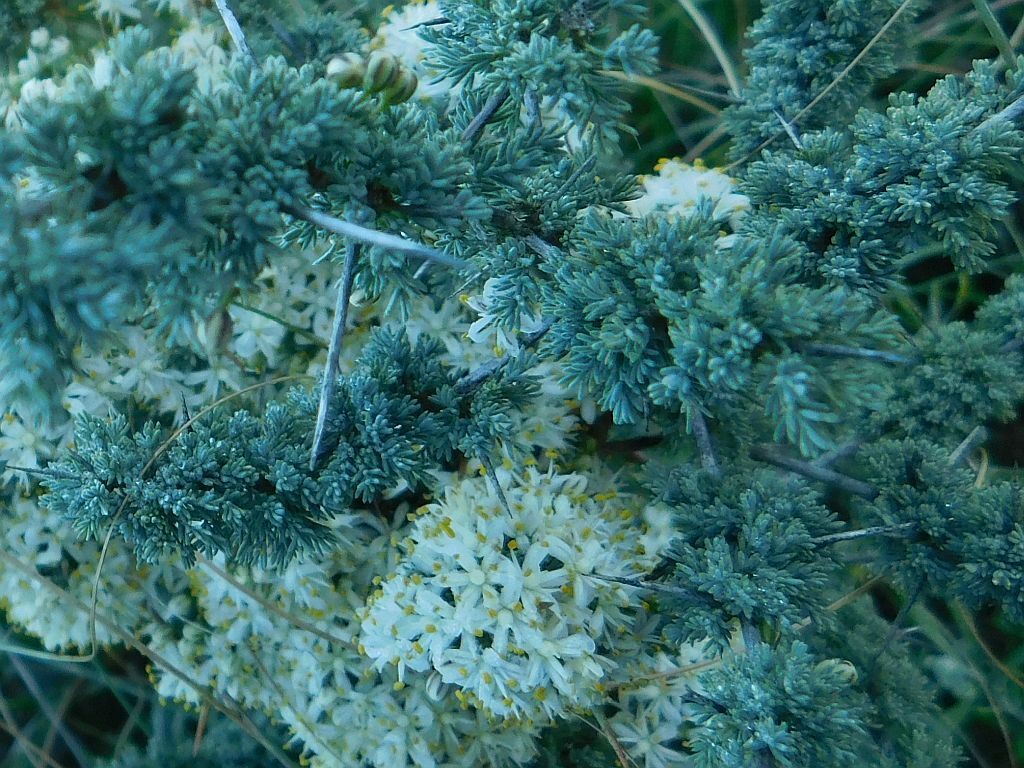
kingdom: Plantae
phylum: Tracheophyta
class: Liliopsida
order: Asparagales
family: Asparagaceae
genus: Asparagus
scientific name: Asparagus capensis
